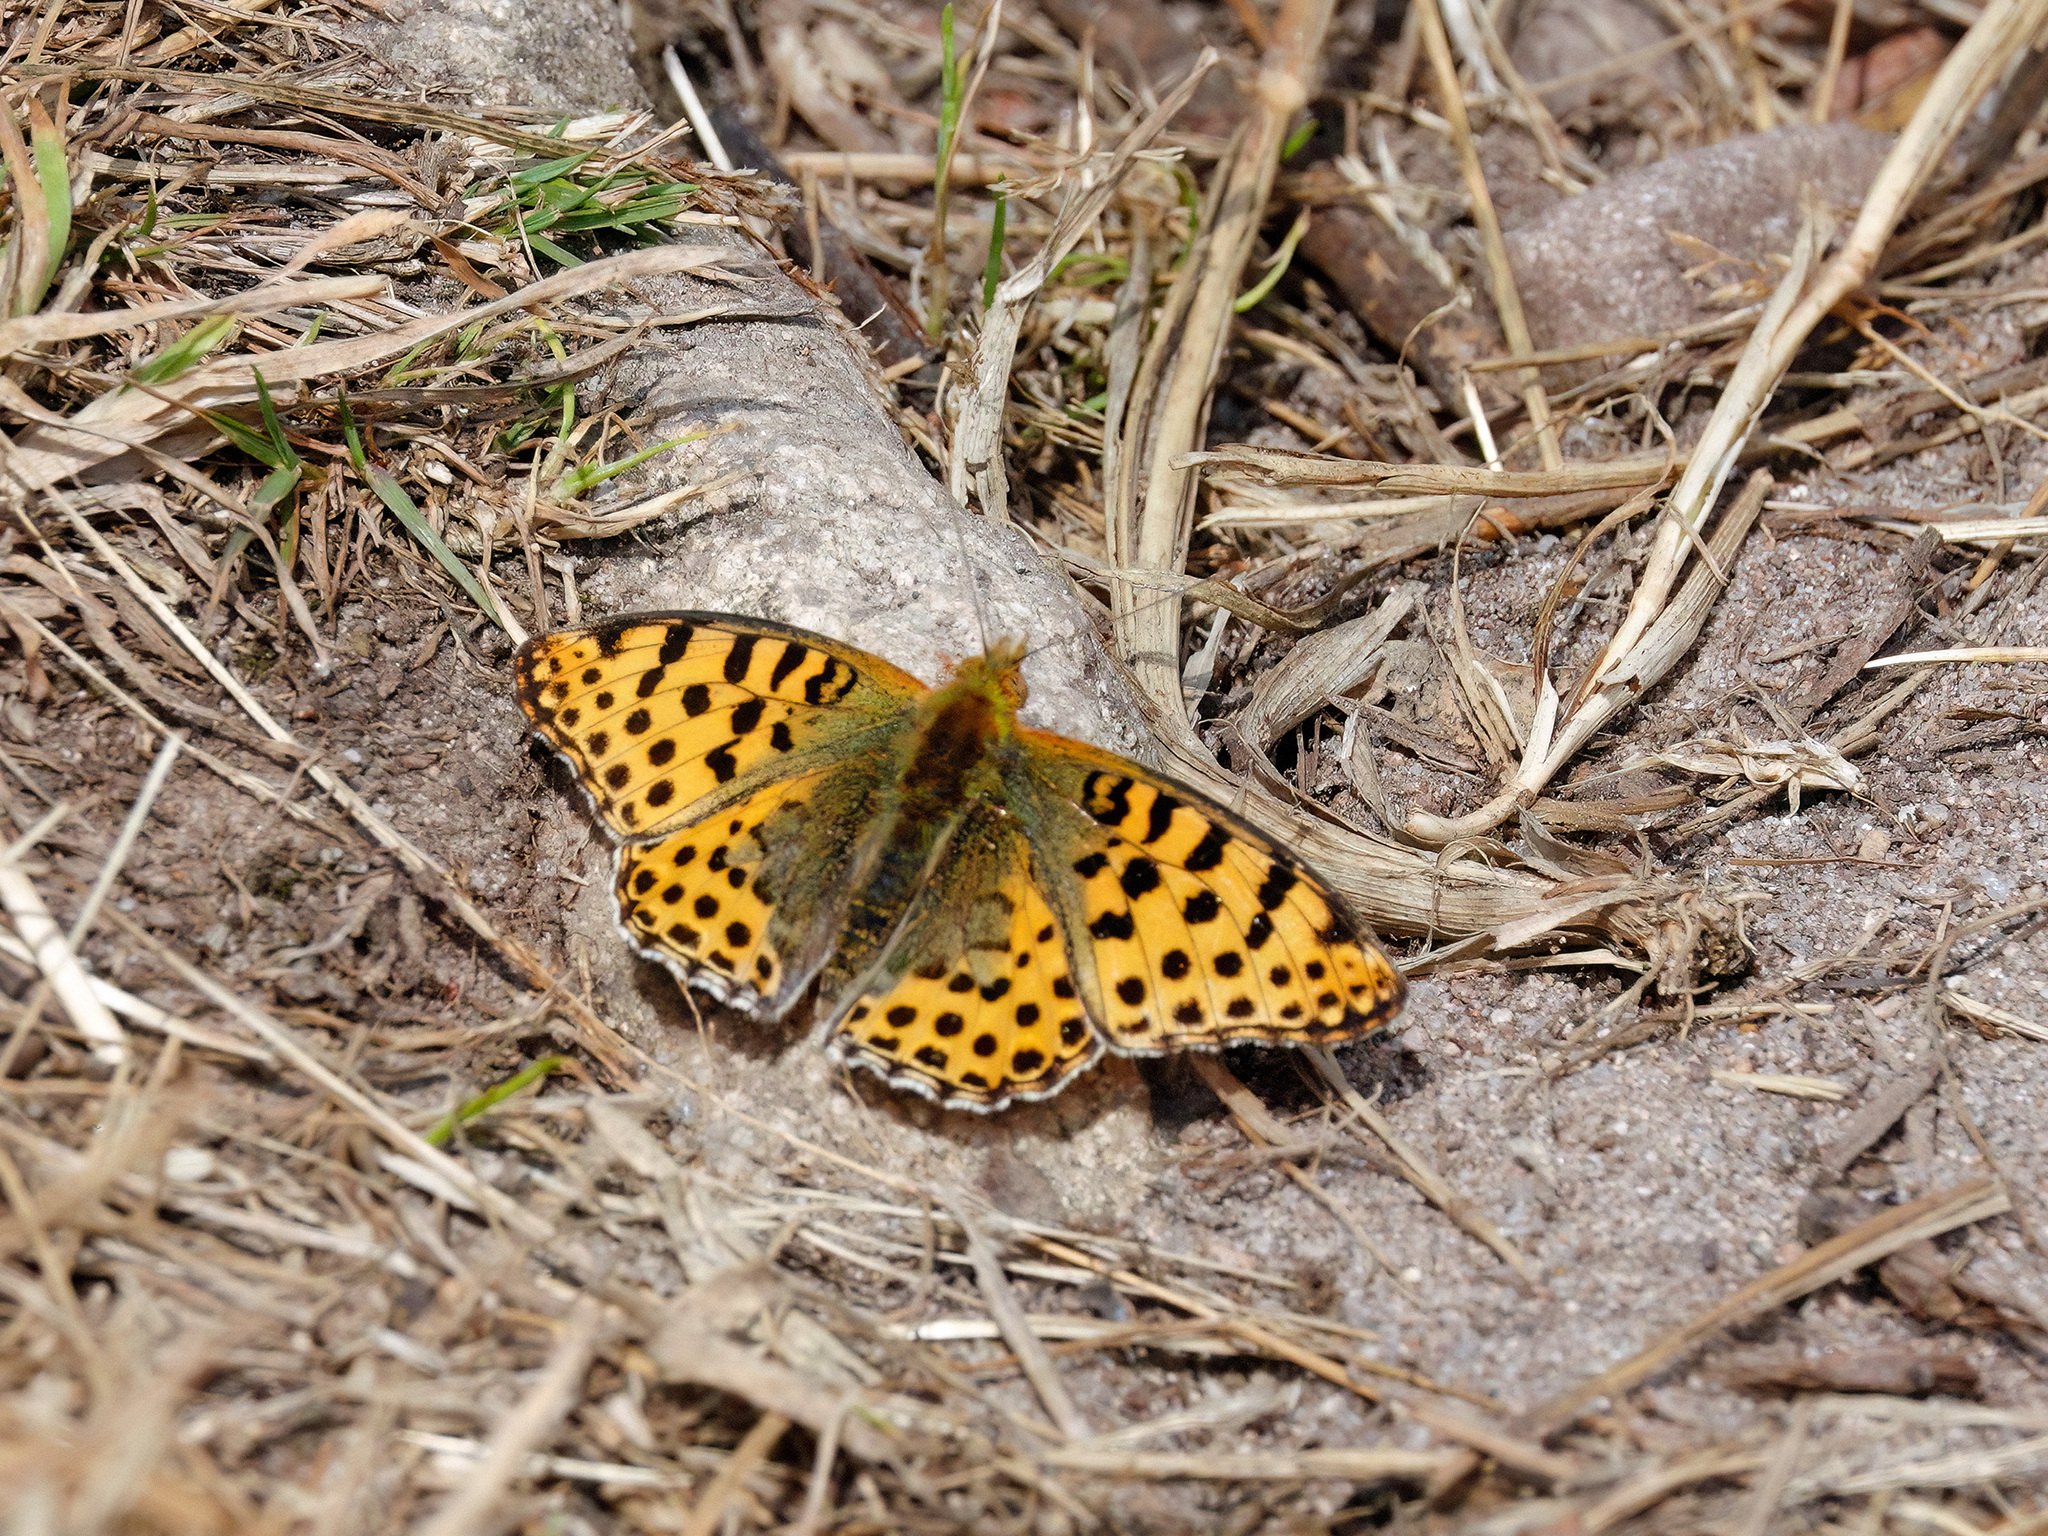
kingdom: Animalia
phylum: Arthropoda
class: Insecta
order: Lepidoptera
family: Nymphalidae
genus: Issoria
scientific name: Issoria lathonia
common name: Queen of spain fritillary
